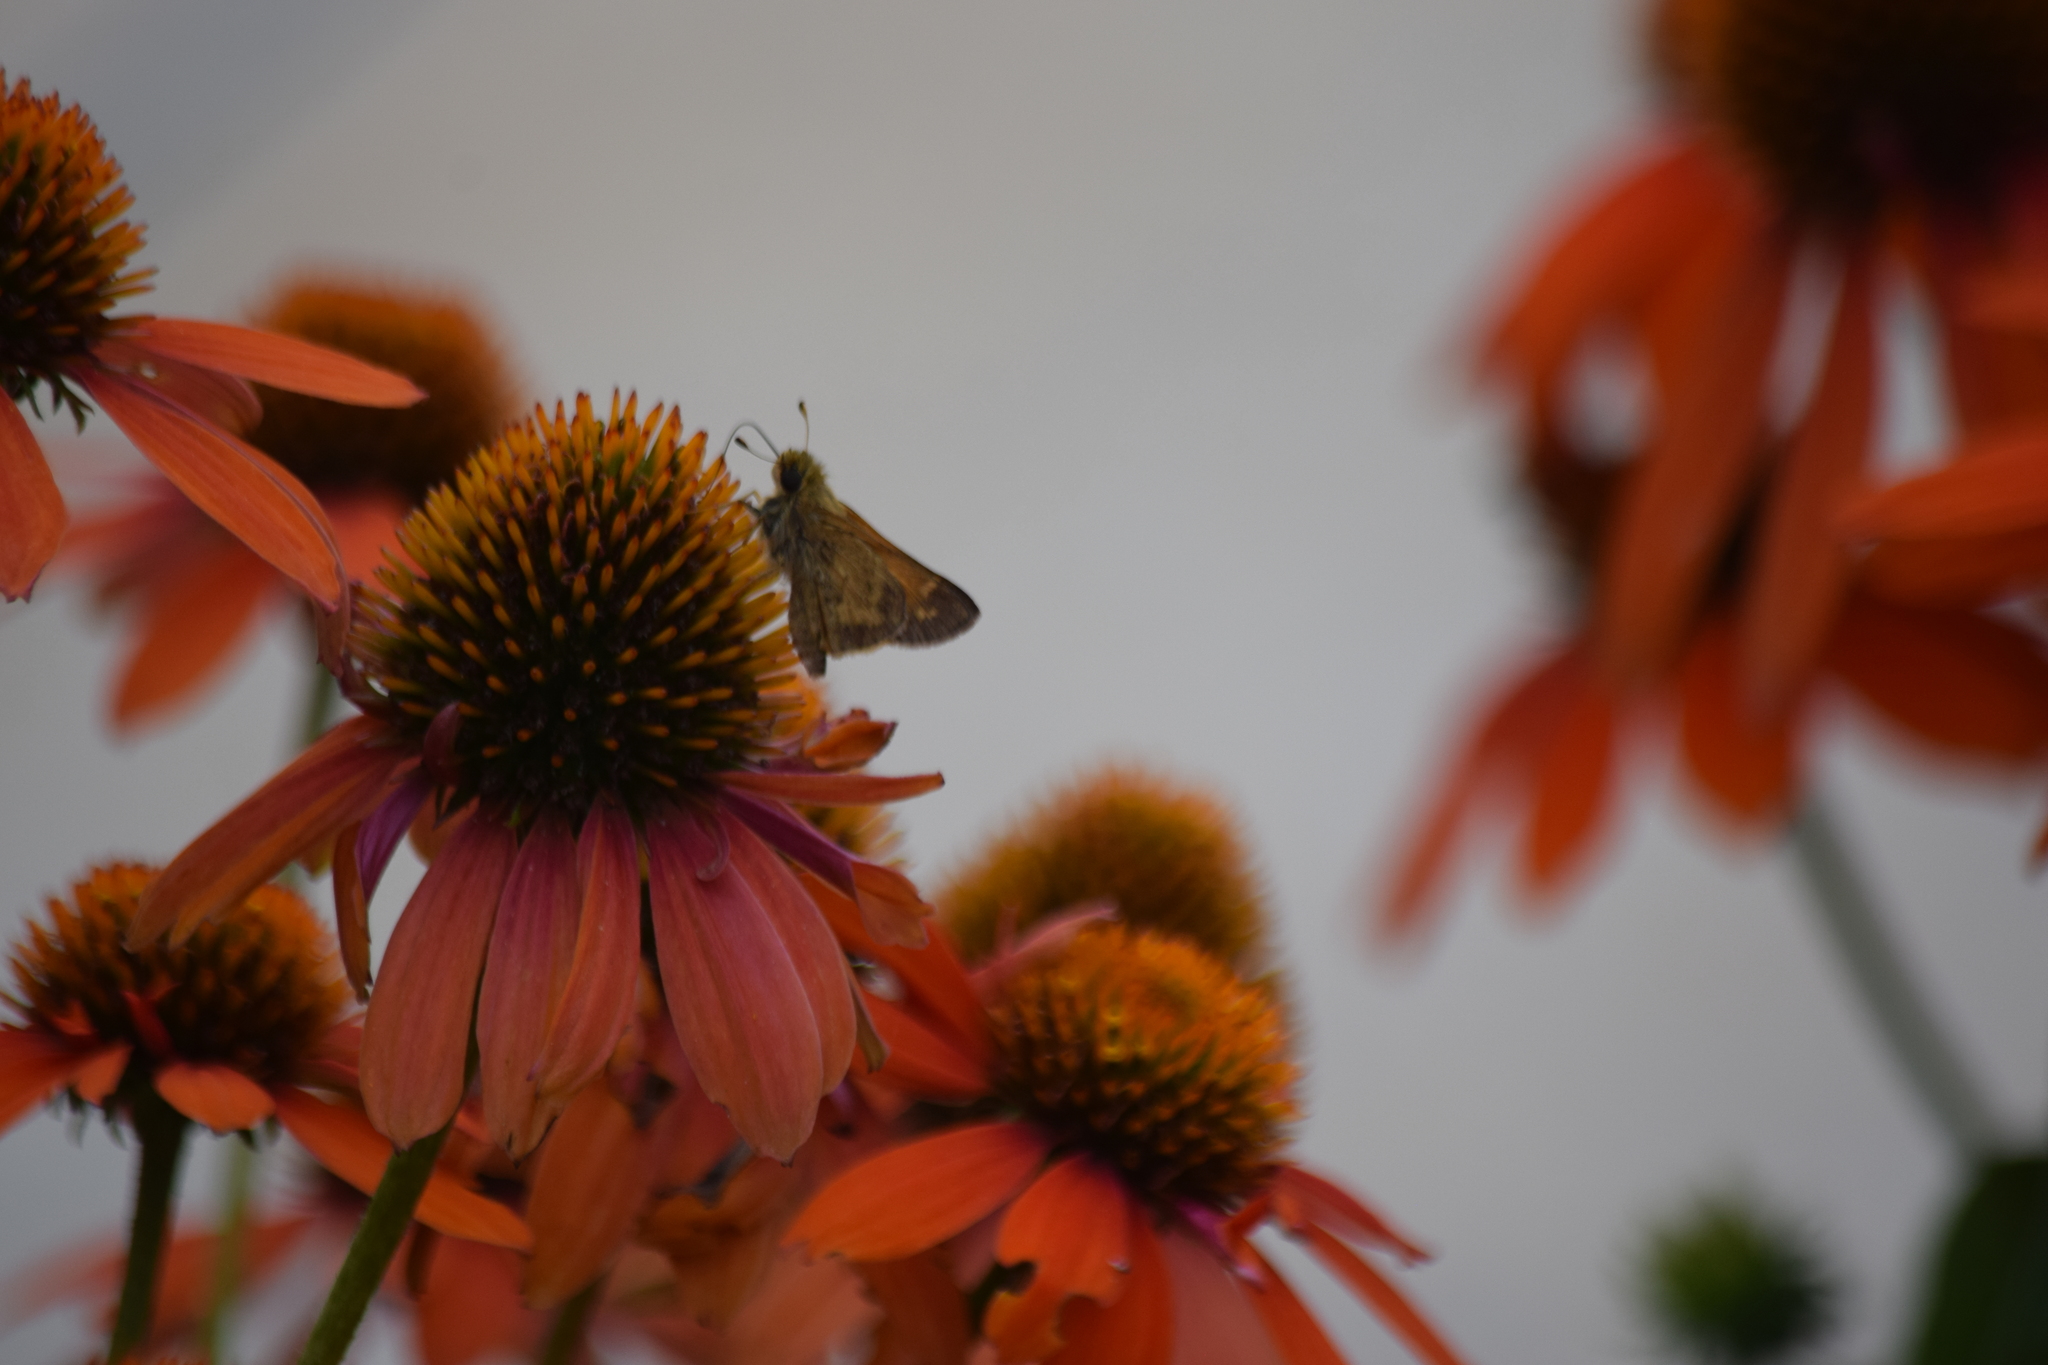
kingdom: Animalia
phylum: Arthropoda
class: Insecta
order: Lepidoptera
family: Hesperiidae
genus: Atalopedes
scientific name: Atalopedes
